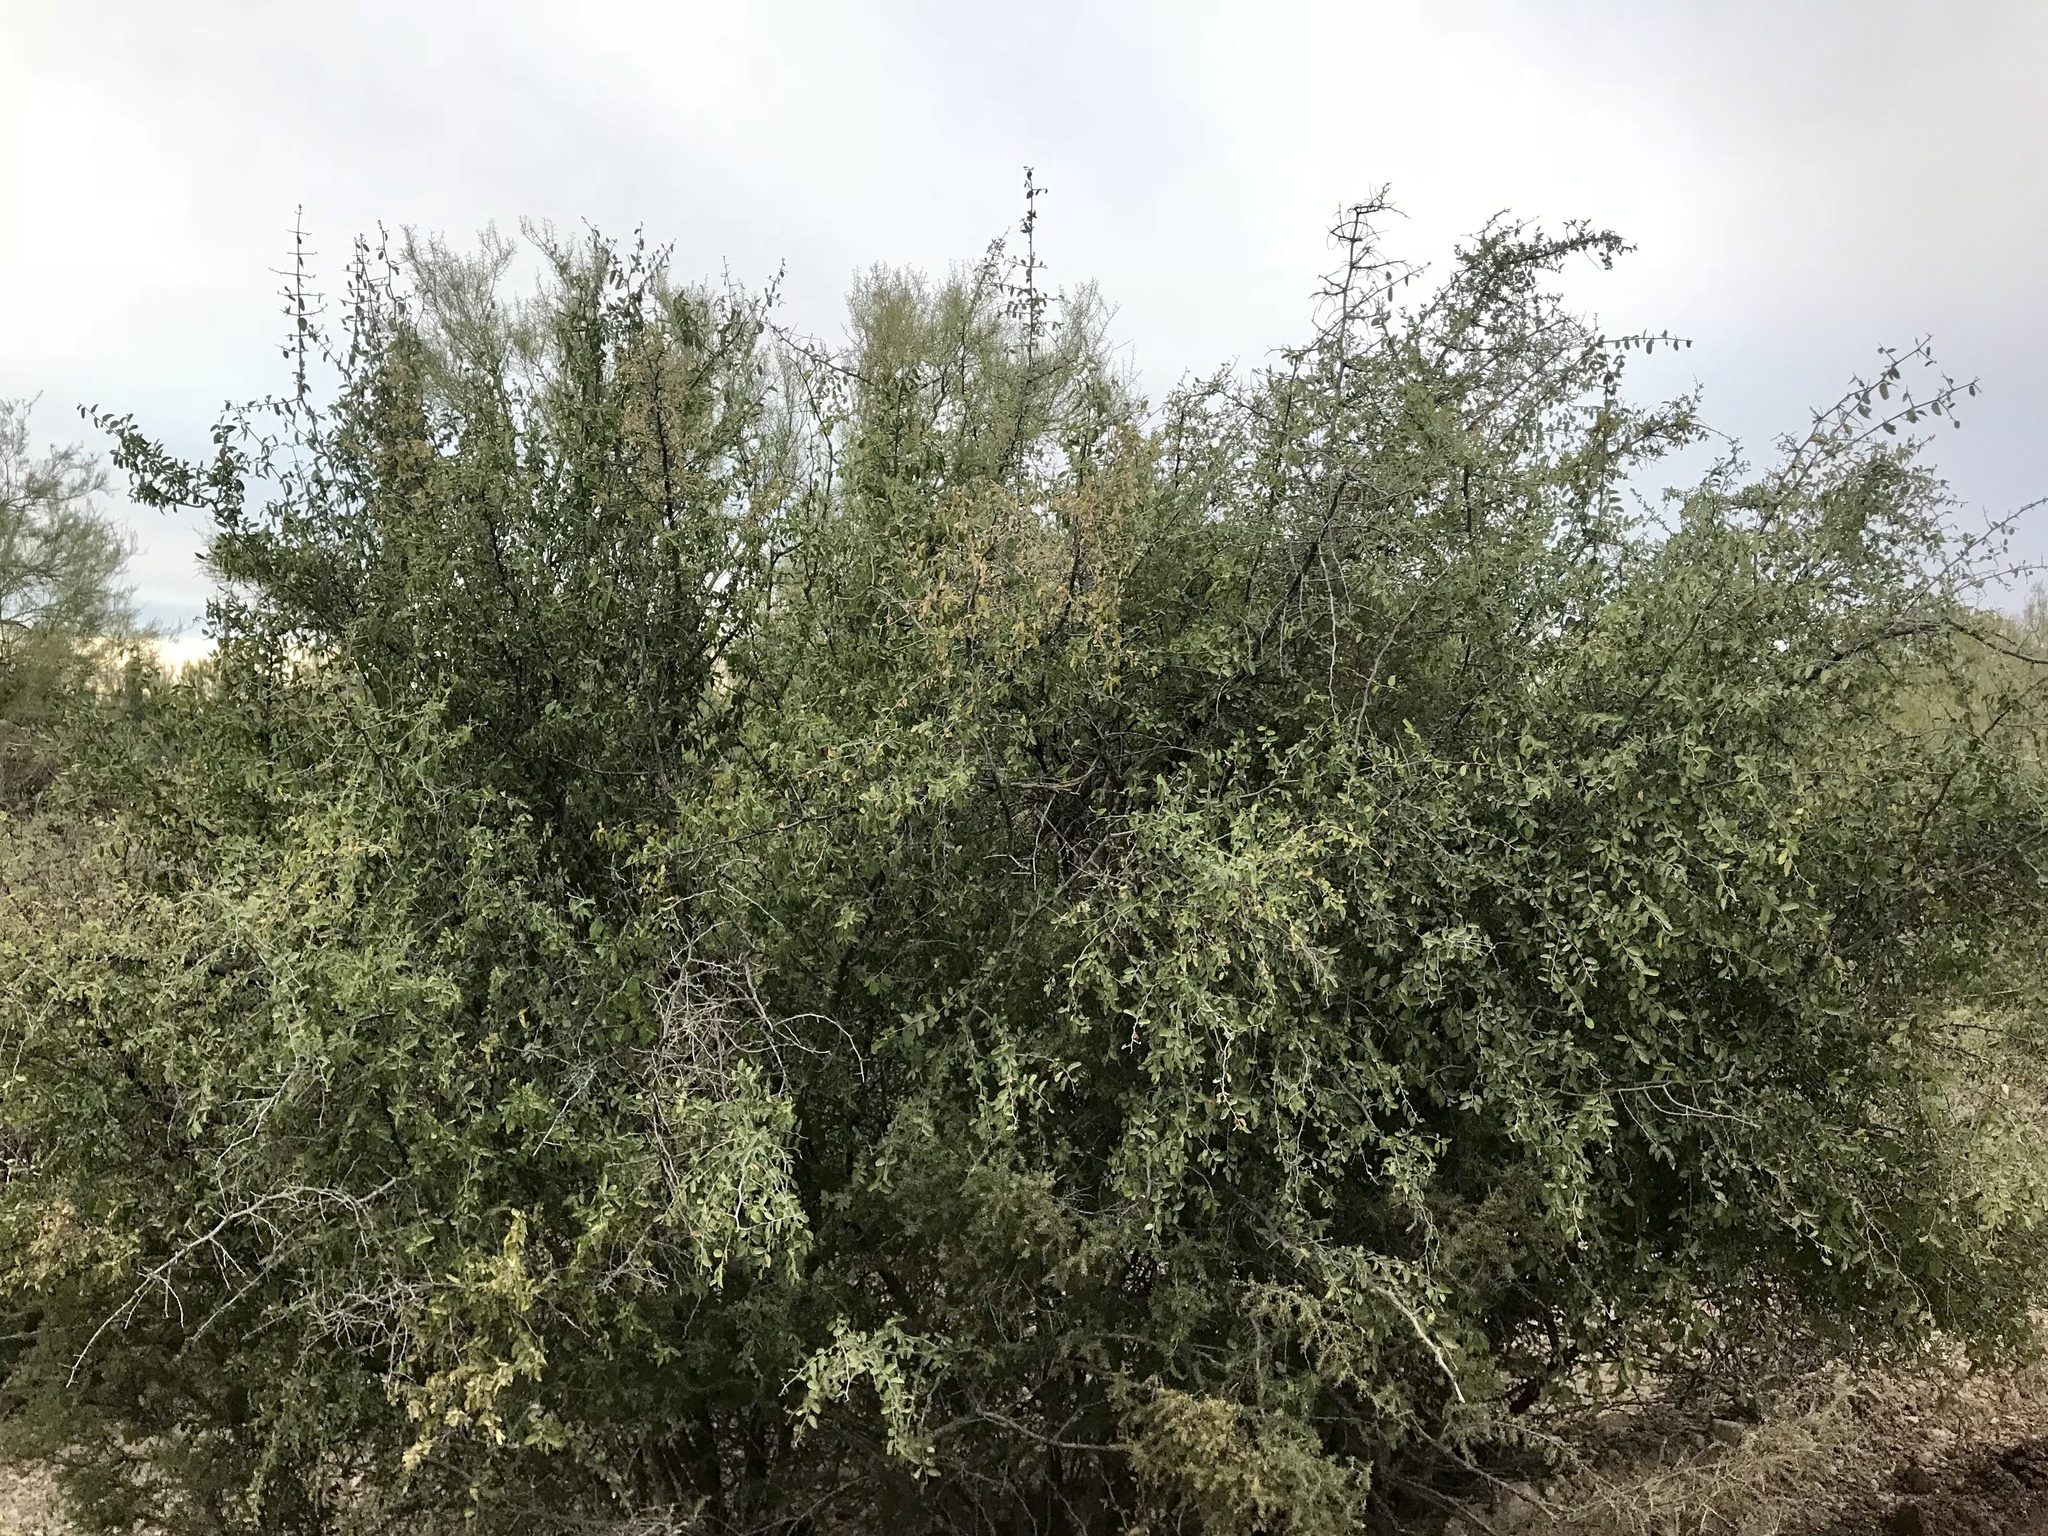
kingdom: Plantae
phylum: Tracheophyta
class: Magnoliopsida
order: Rosales
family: Cannabaceae
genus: Celtis
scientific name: Celtis pallida
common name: Desert hackberry
